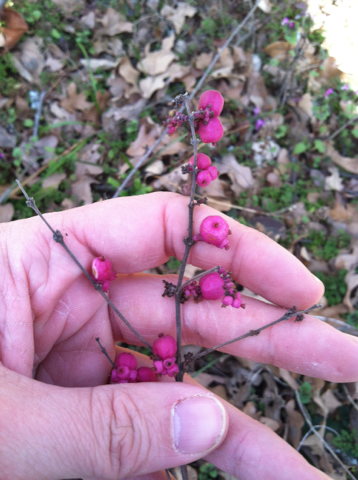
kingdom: Plantae
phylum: Tracheophyta
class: Magnoliopsida
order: Dipsacales
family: Caprifoliaceae
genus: Symphoricarpos
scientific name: Symphoricarpos orbiculatus
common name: Coralberry
